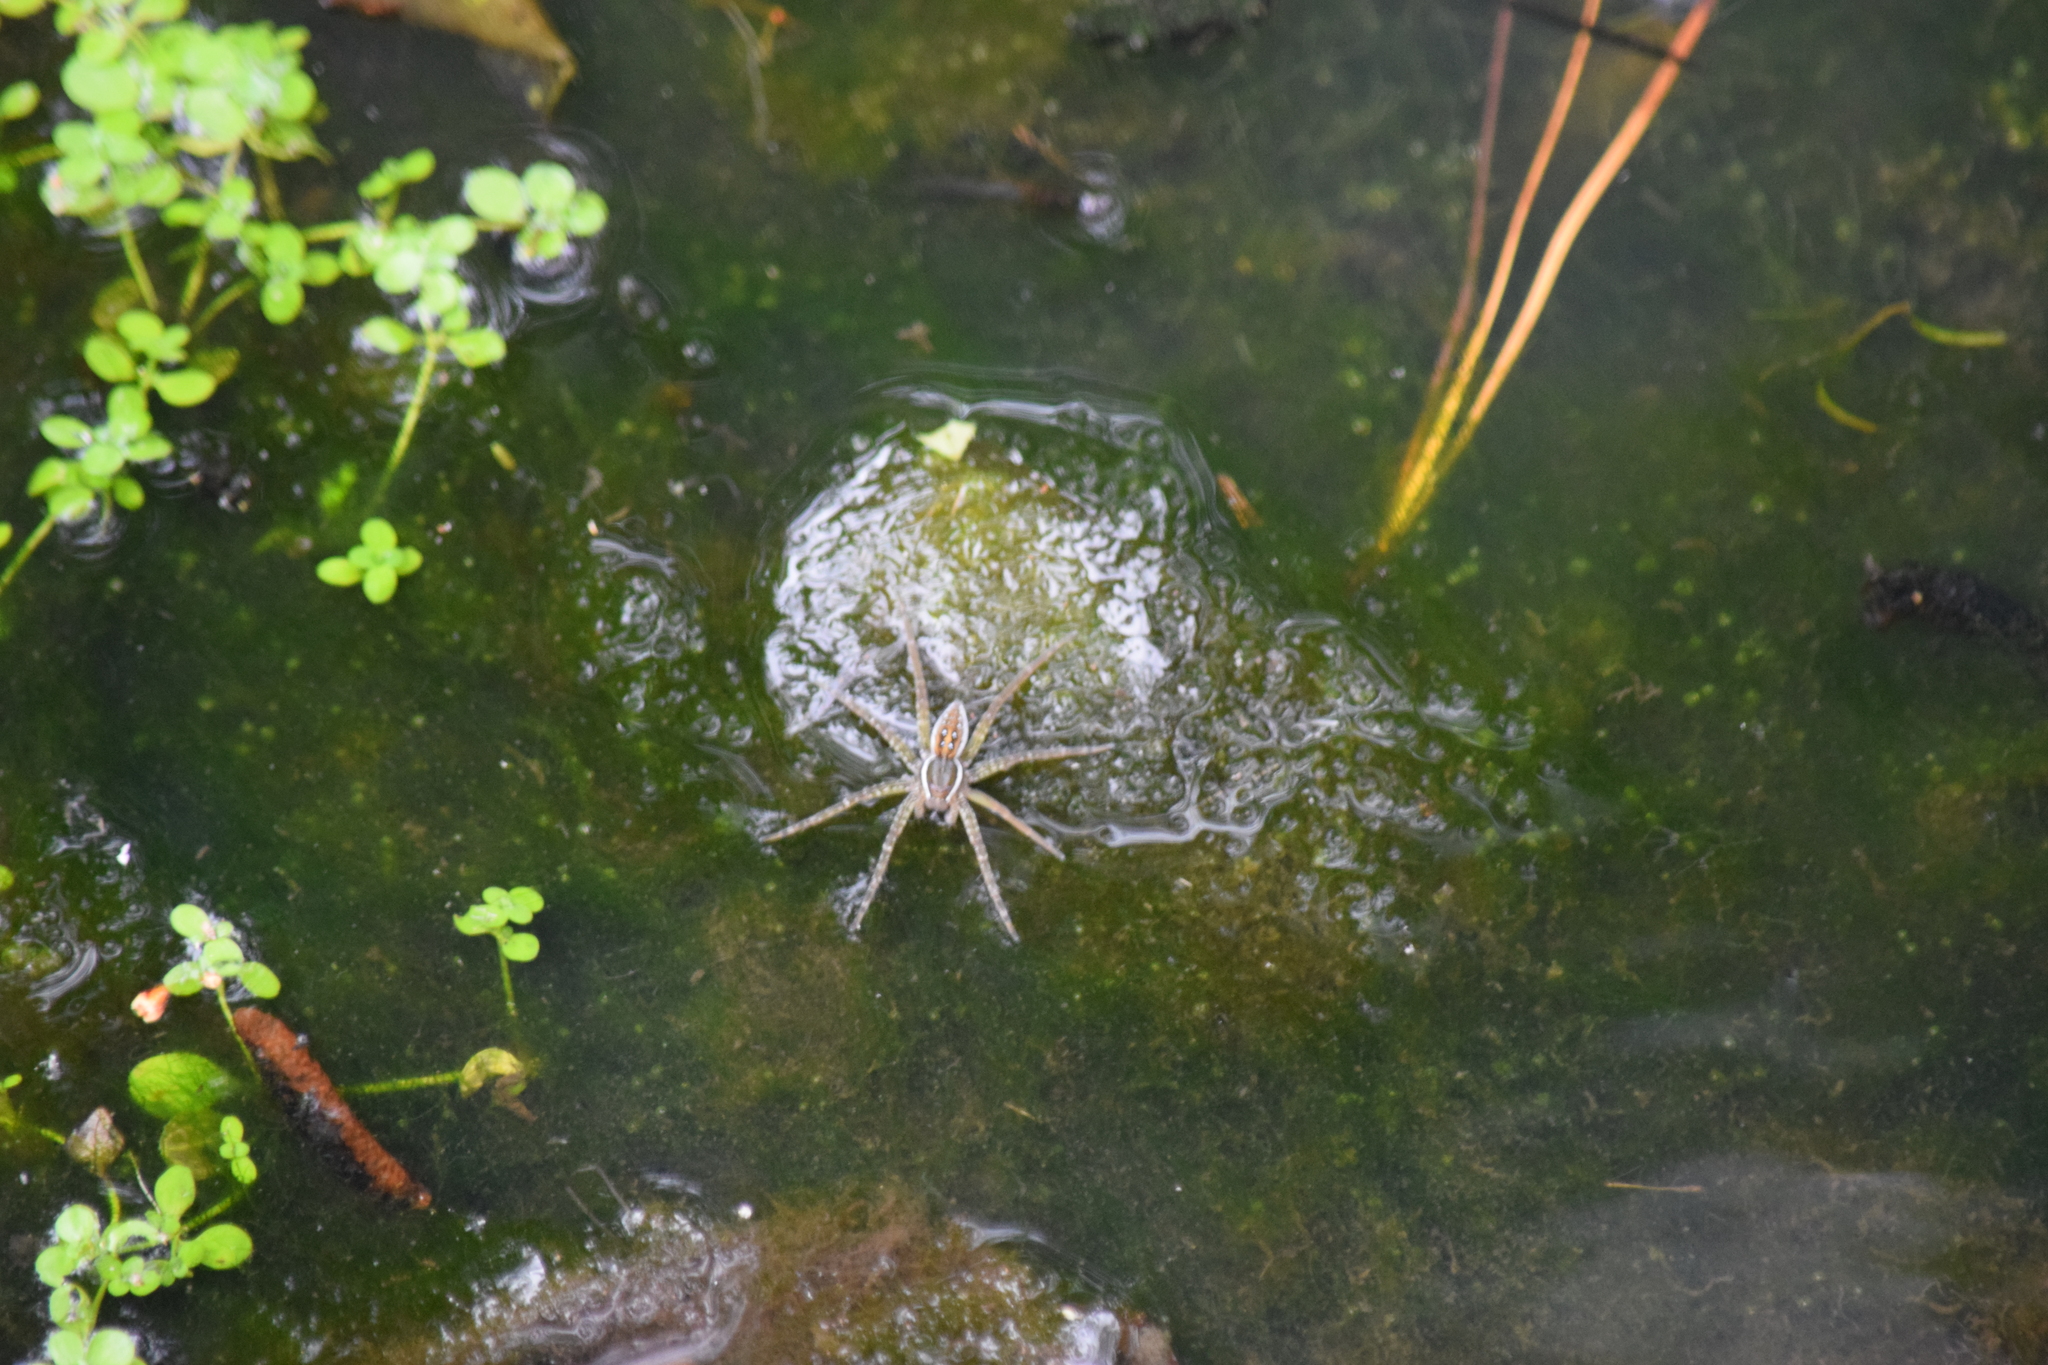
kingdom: Animalia
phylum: Arthropoda
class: Arachnida
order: Araneae
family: Pisauridae
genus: Dolomedes
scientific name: Dolomedes triton
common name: Six-spotted fishing spider
